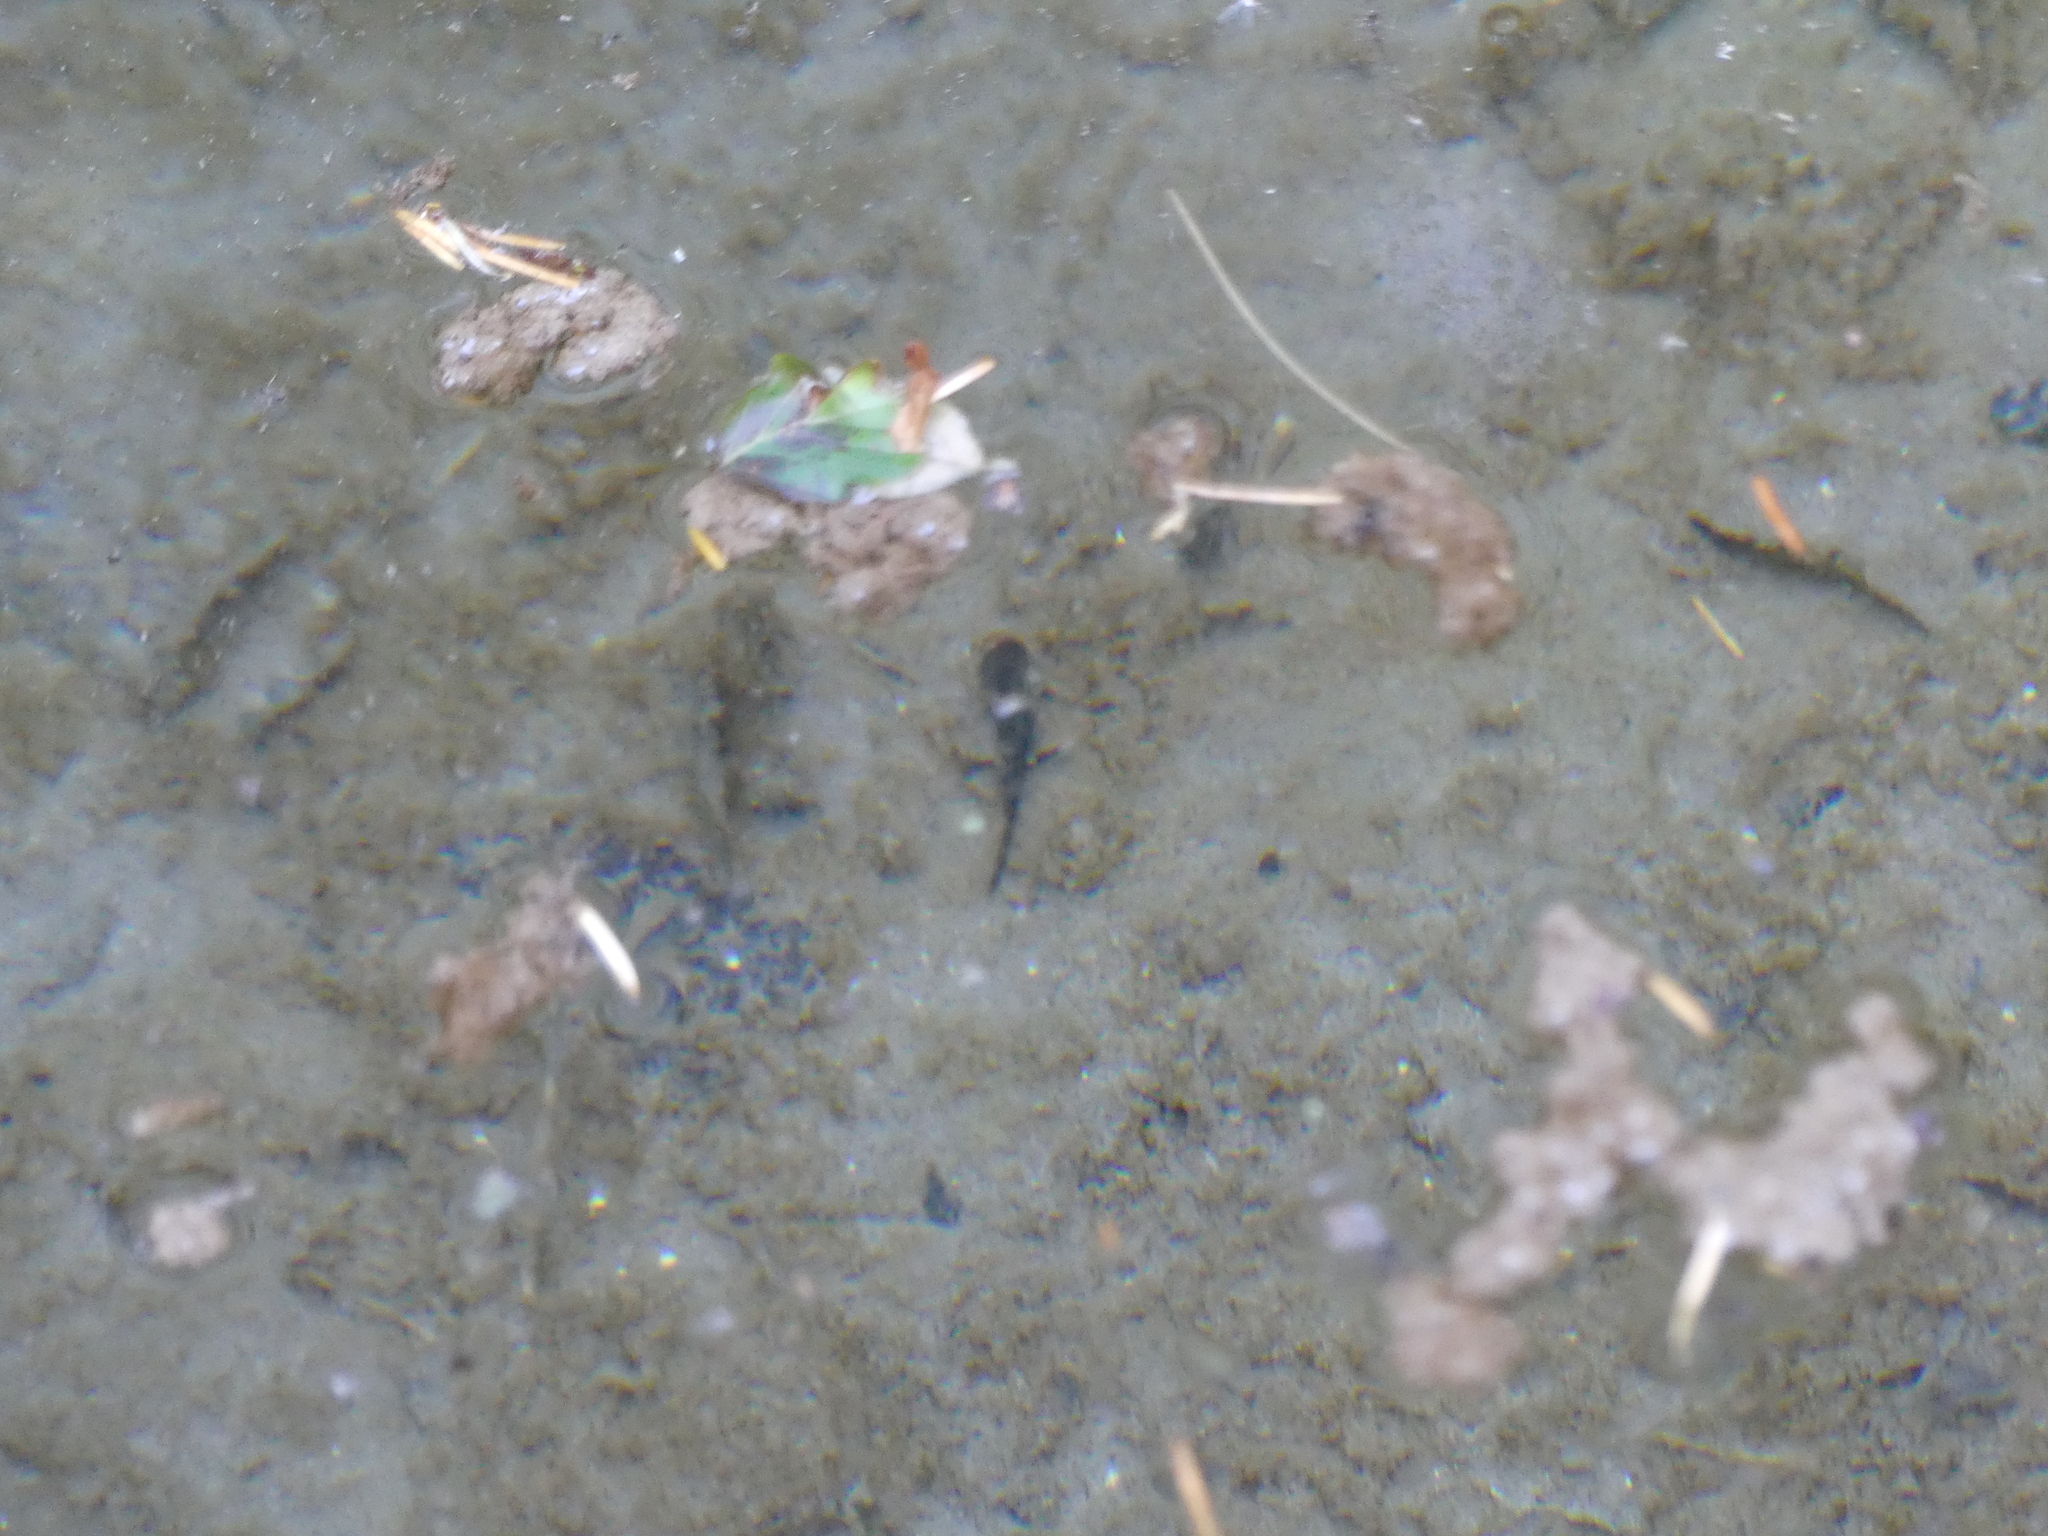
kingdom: Animalia
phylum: Chordata
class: Amphibia
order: Caudata
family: Salamandridae
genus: Salamandra
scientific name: Salamandra salamandra
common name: Fire salamander
